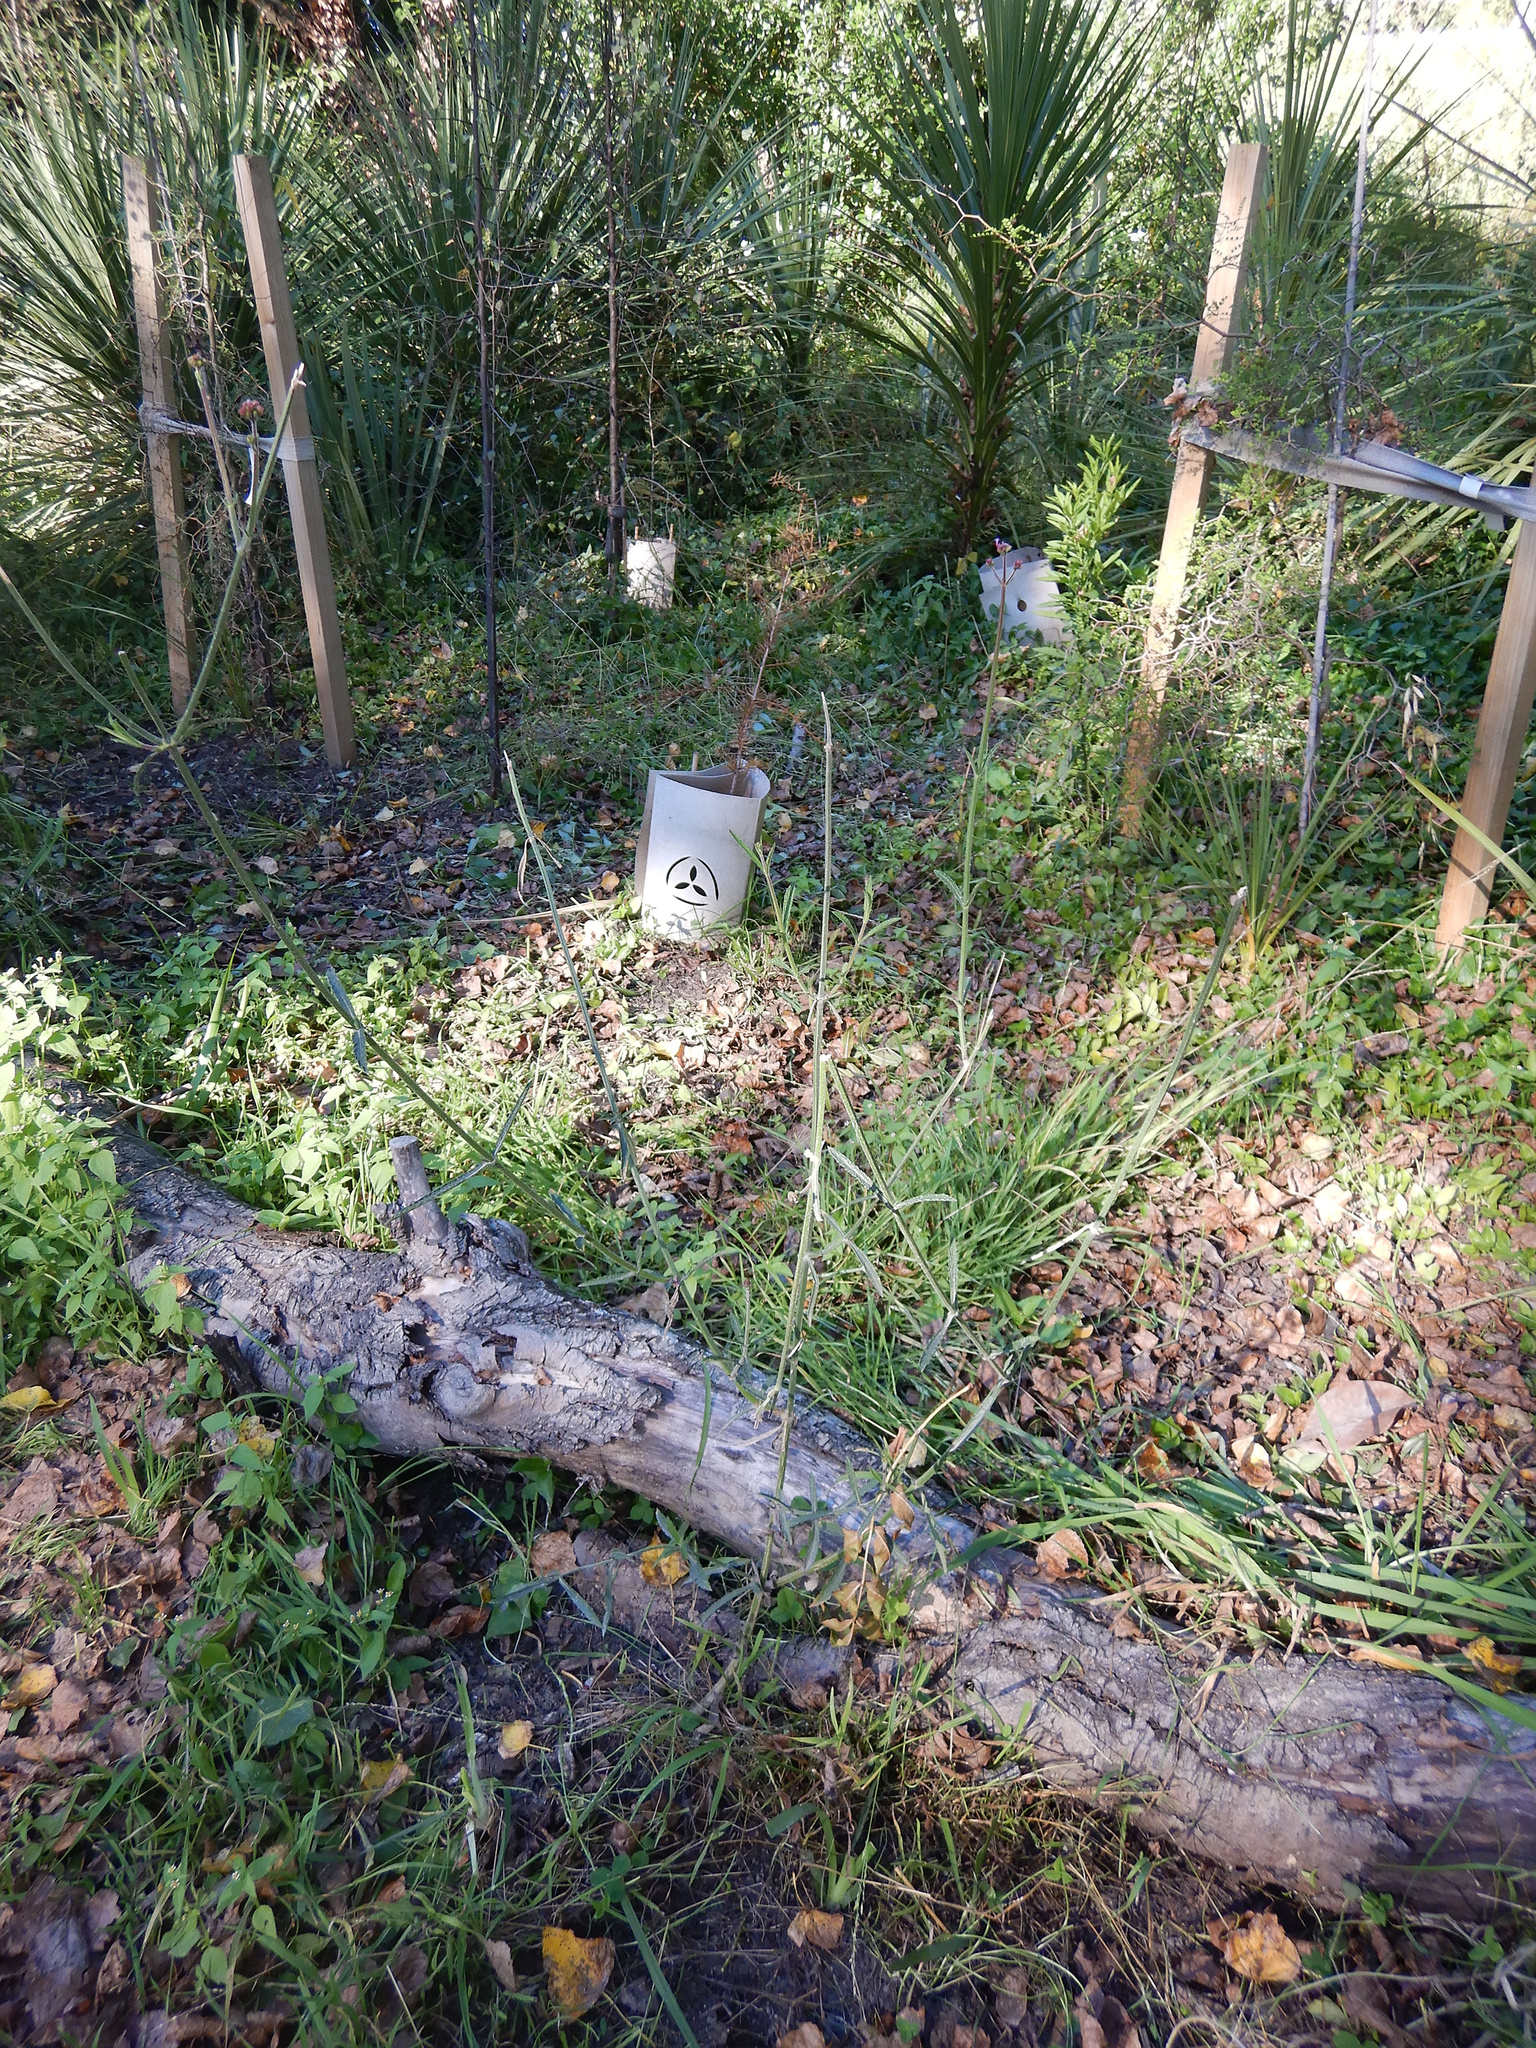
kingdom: Plantae
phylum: Tracheophyta
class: Magnoliopsida
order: Lamiales
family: Verbenaceae
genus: Verbena
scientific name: Verbena bonariensis
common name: Purpletop vervain
